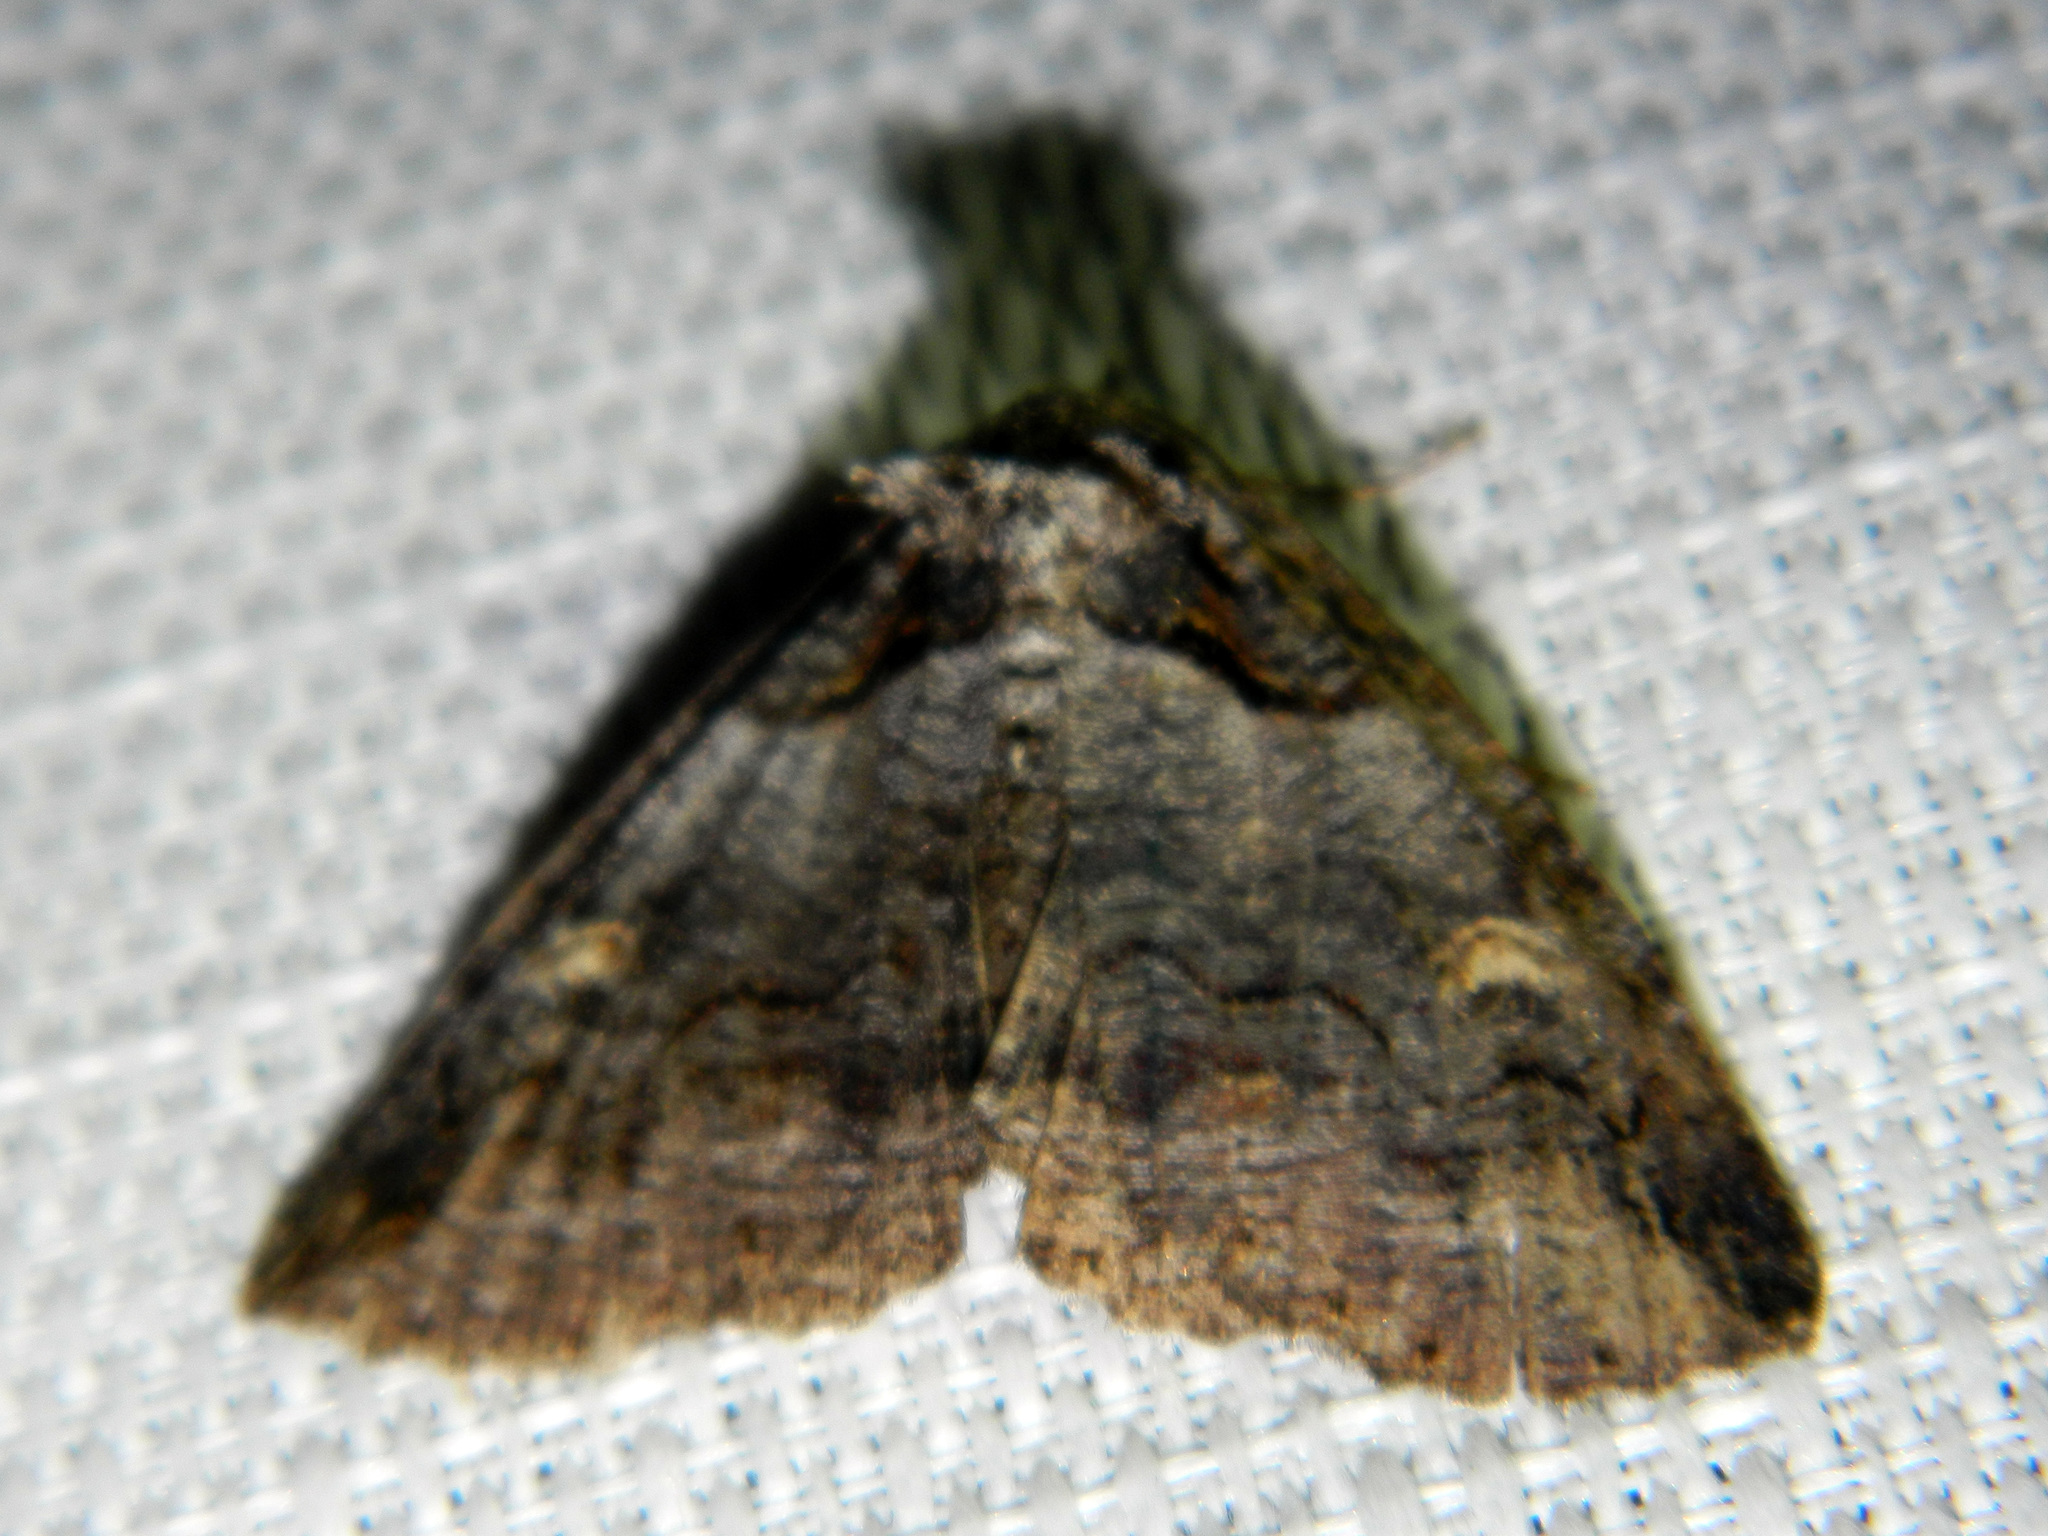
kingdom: Animalia
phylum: Arthropoda
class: Insecta
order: Lepidoptera
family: Erebidae
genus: Zale
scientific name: Zale intenta
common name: Intent zale moth
